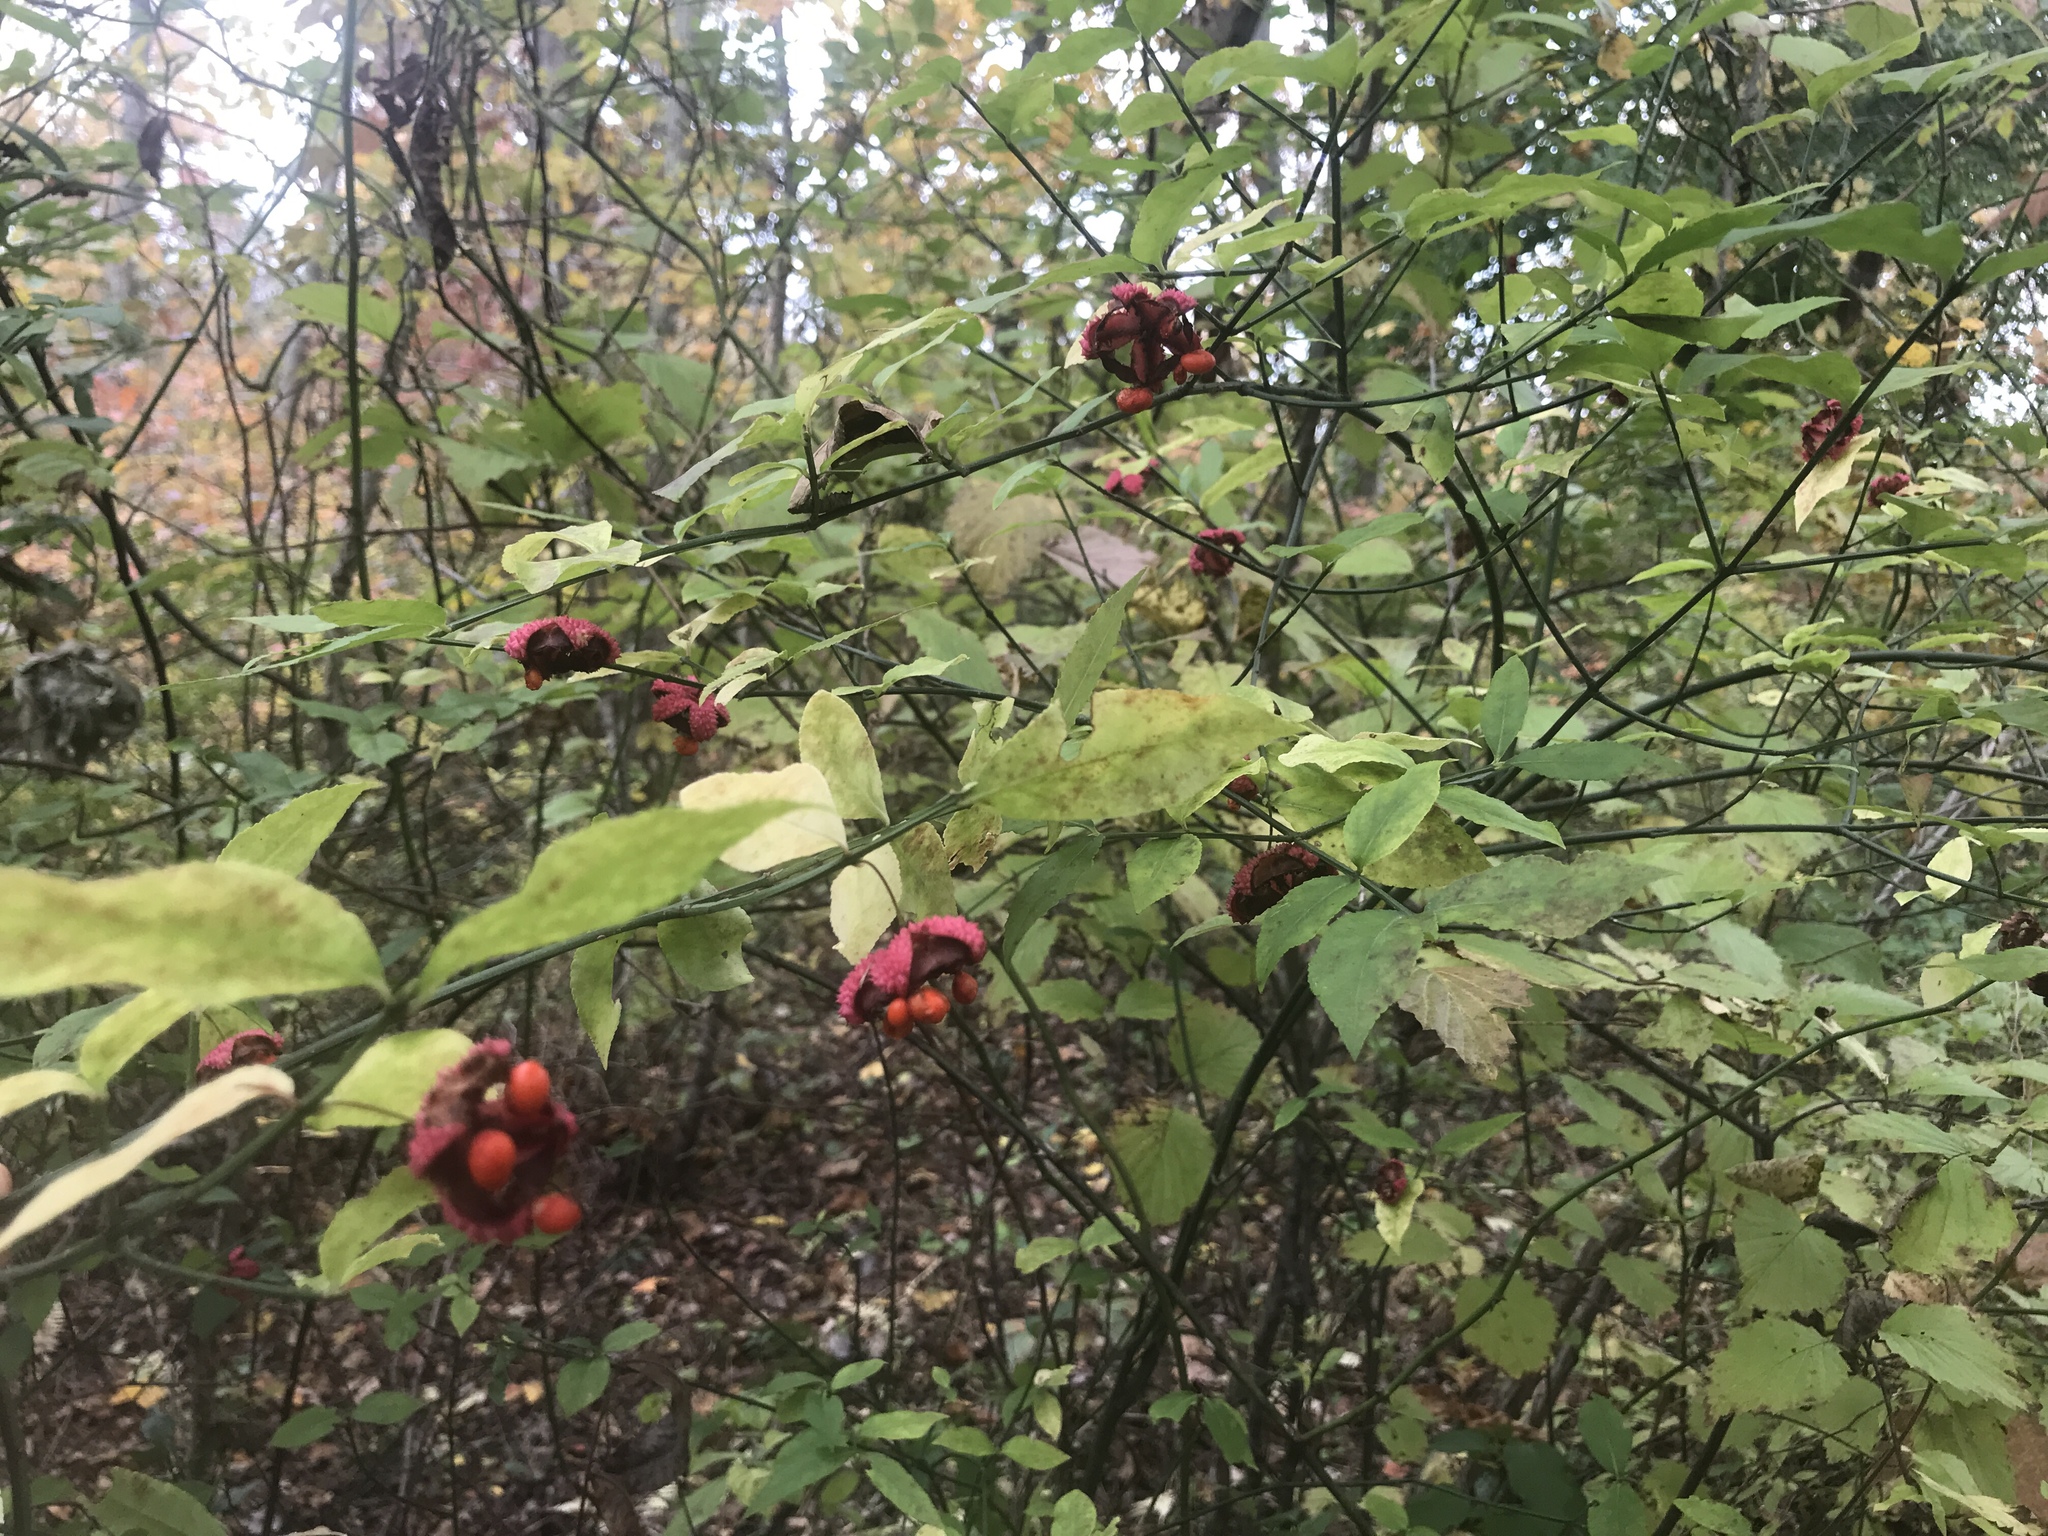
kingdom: Plantae
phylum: Tracheophyta
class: Magnoliopsida
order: Celastrales
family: Celastraceae
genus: Euonymus
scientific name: Euonymus americanus
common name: Bursting-heart
